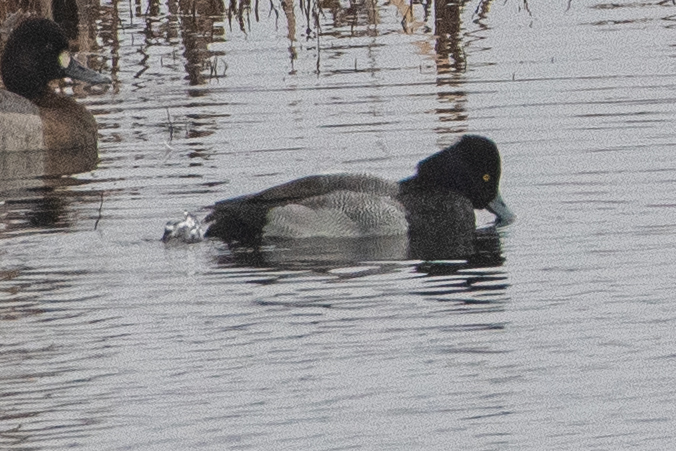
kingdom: Animalia
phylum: Chordata
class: Aves
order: Anseriformes
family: Anatidae
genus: Aythya
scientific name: Aythya affinis
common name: Lesser scaup
